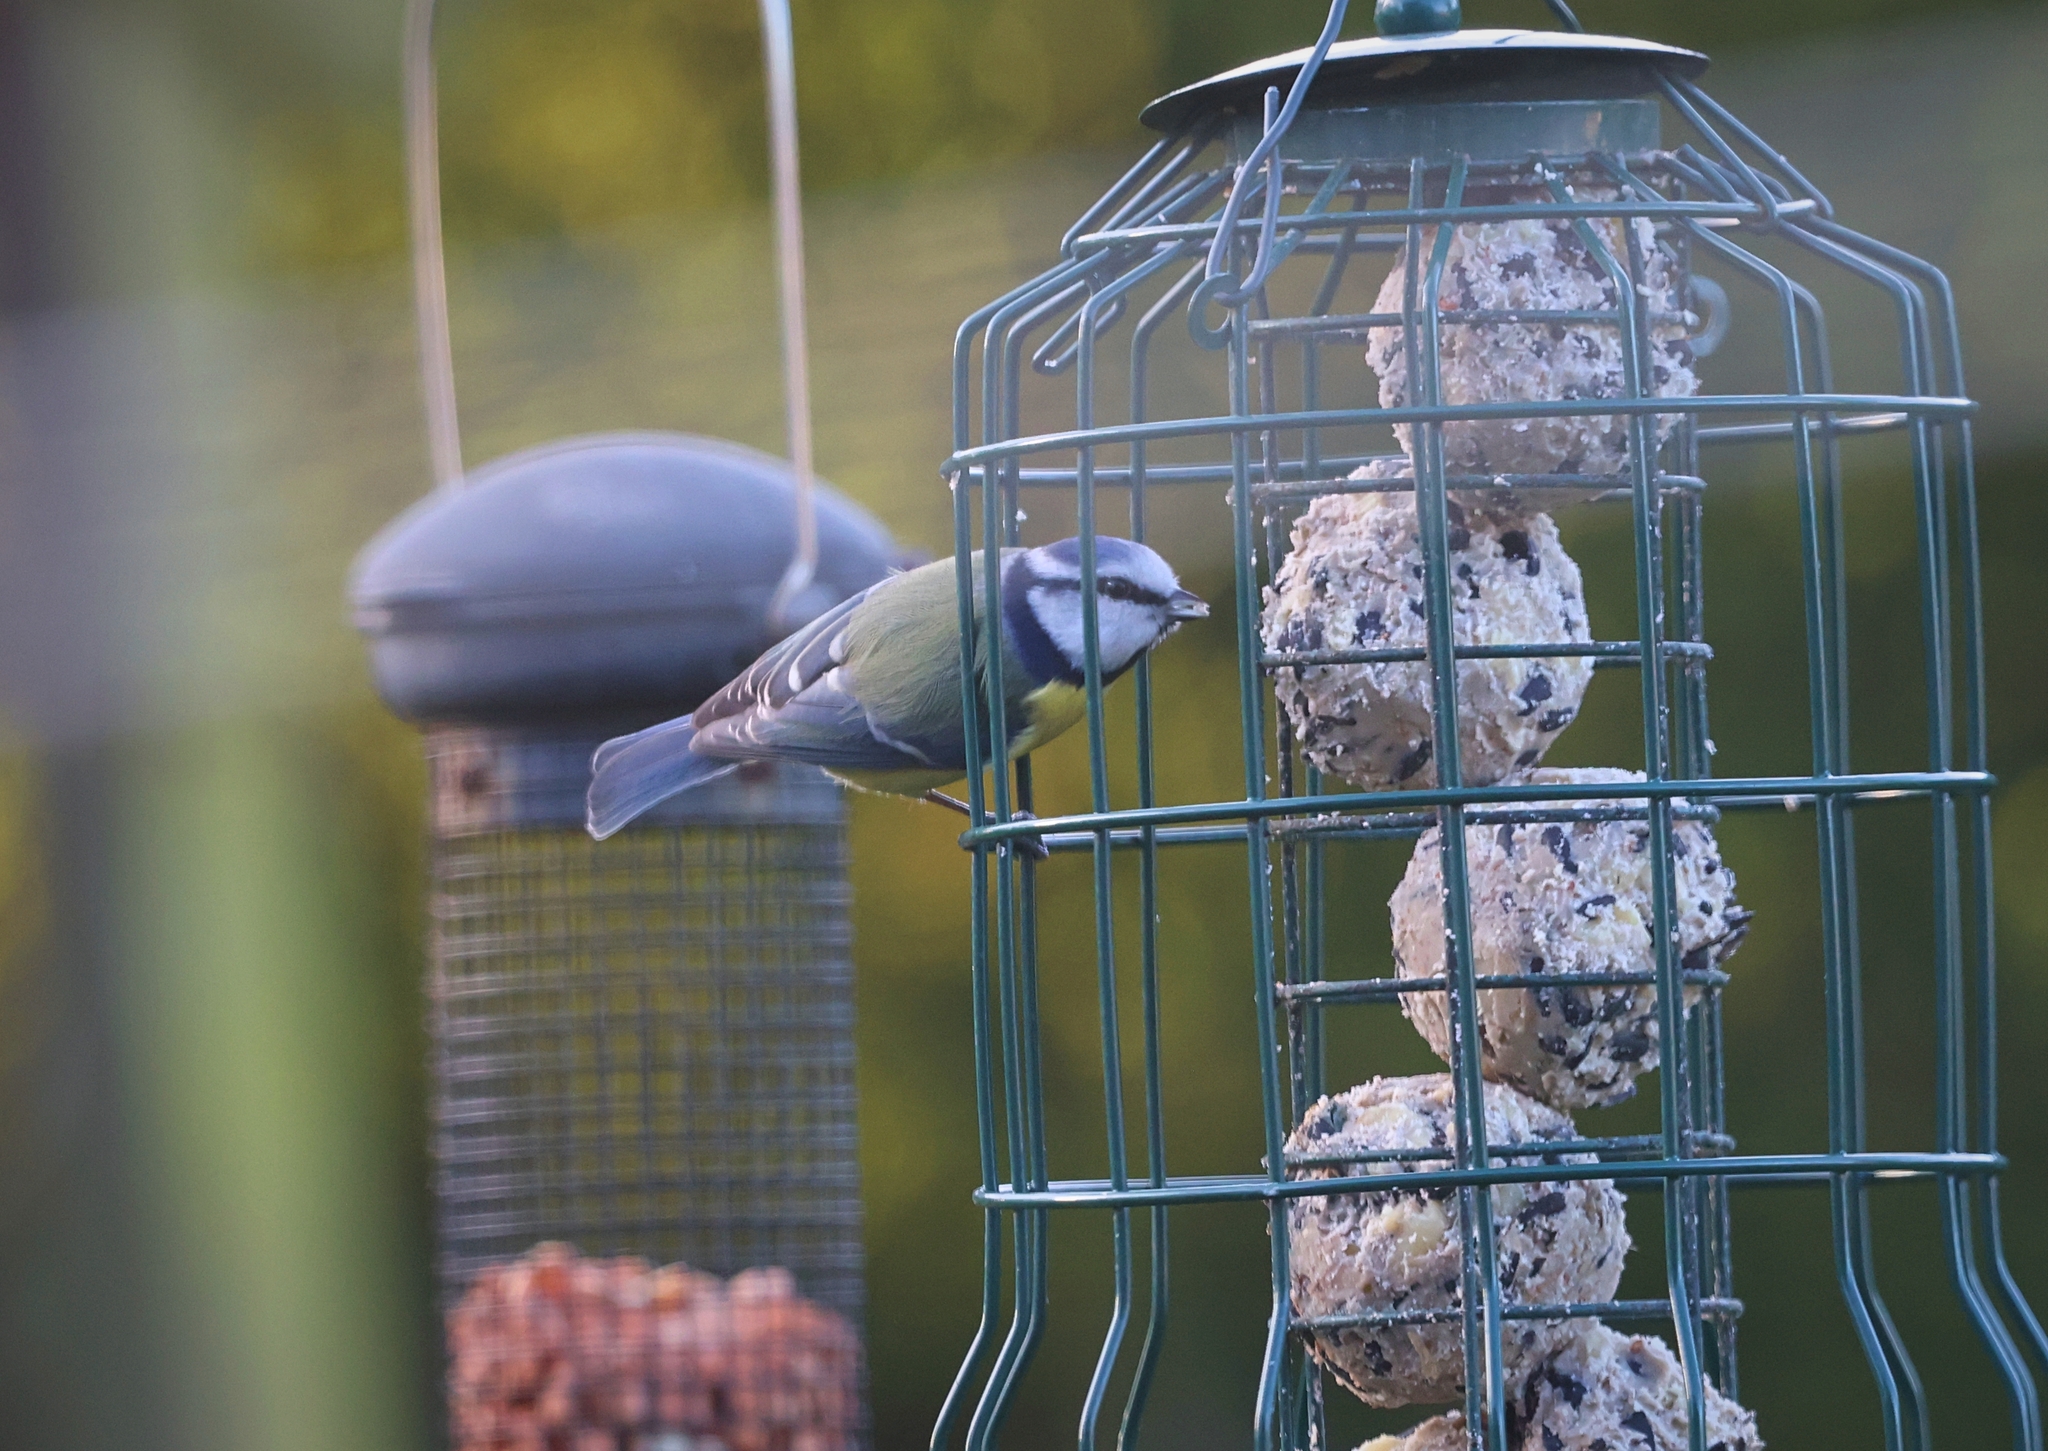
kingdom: Animalia
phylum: Chordata
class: Aves
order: Passeriformes
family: Paridae
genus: Cyanistes
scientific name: Cyanistes caeruleus
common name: Eurasian blue tit
